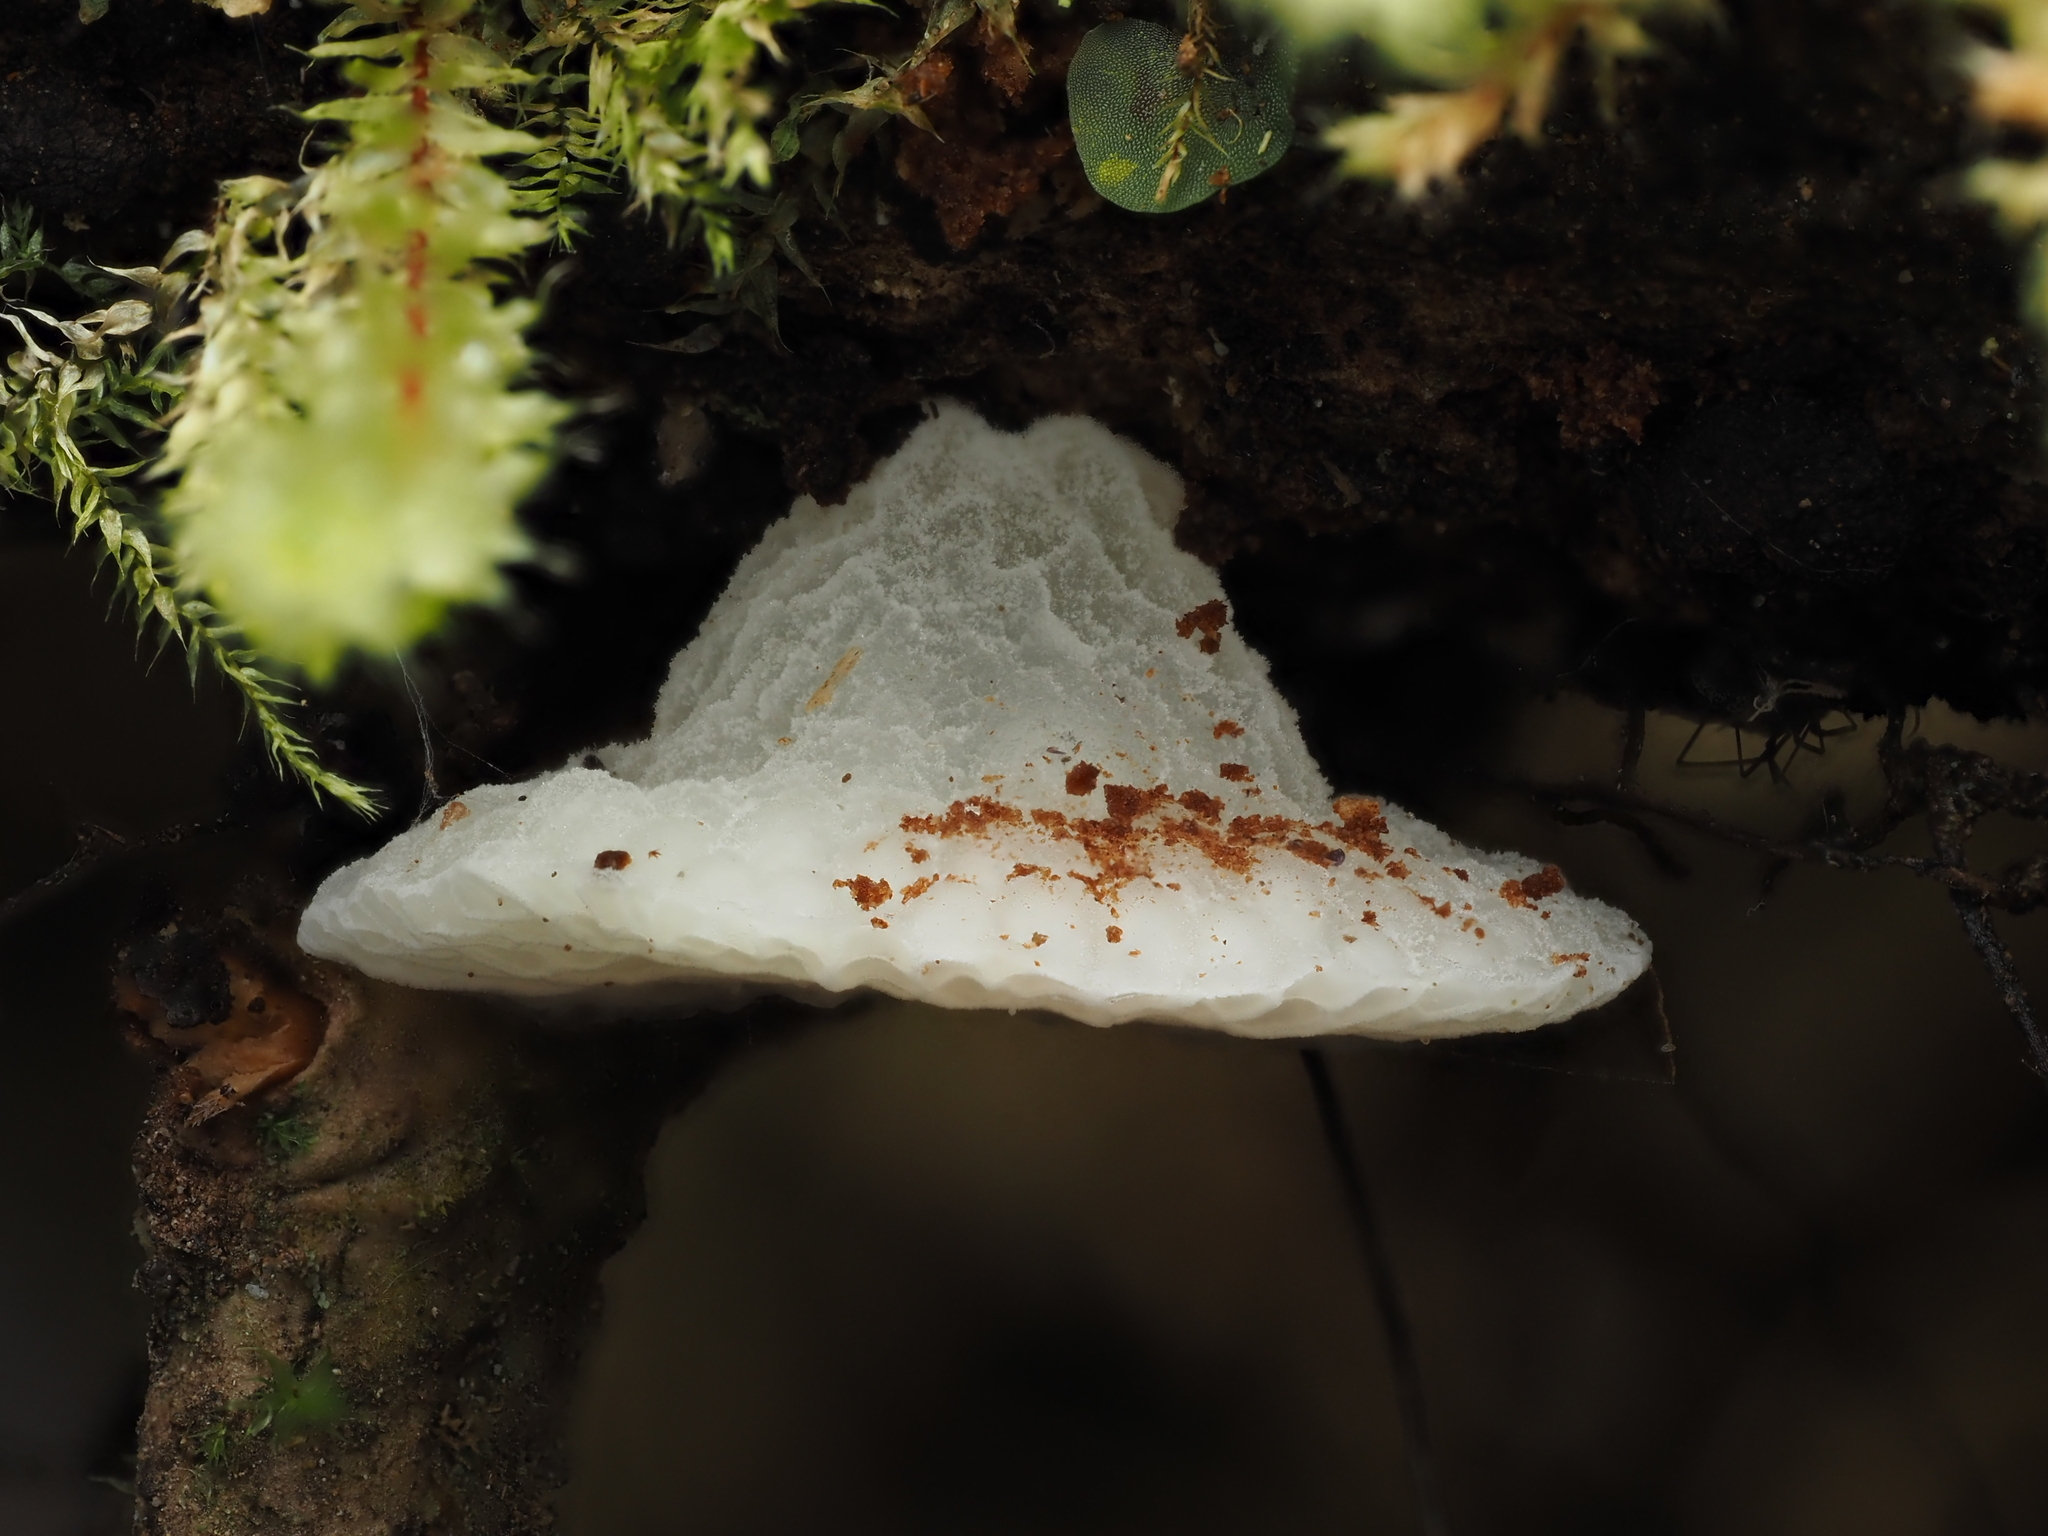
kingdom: Fungi
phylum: Basidiomycota
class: Agaricomycetes
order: Agaricales
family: Mycenaceae
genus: Favolaschia
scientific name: Favolaschia pustulosa
